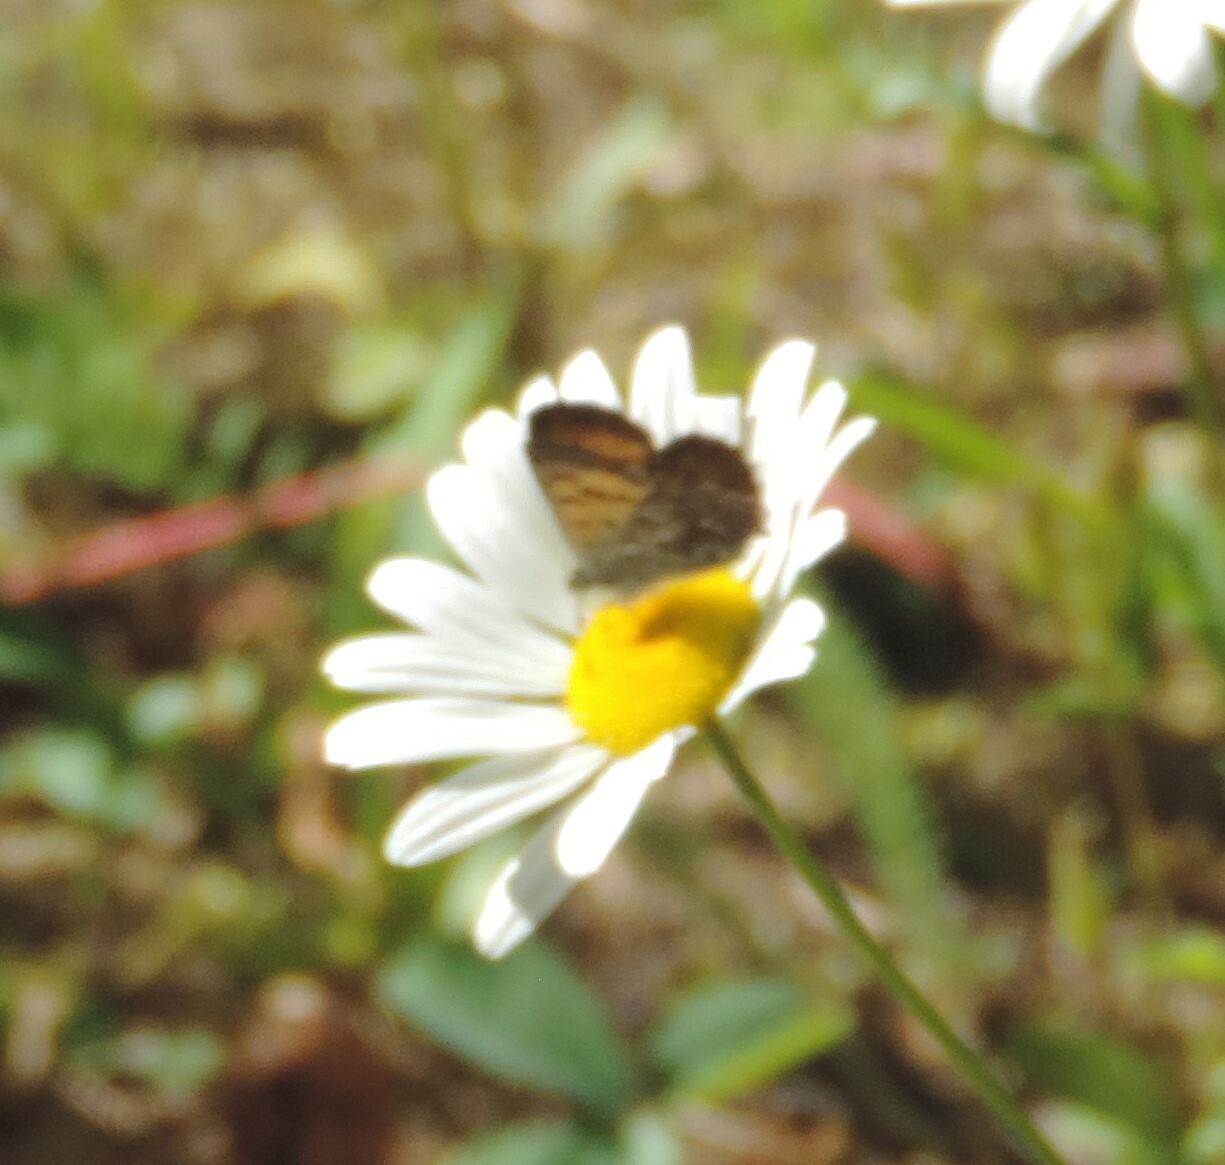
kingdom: Animalia
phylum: Arthropoda
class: Insecta
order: Lepidoptera
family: Lycaenidae
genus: Tharsalea
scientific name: Tharsalea mariposa
